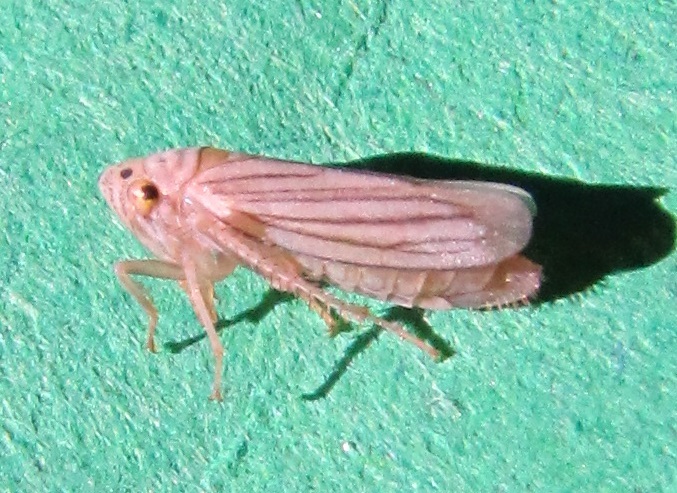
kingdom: Animalia
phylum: Arthropoda
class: Insecta
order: Hemiptera
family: Cicadellidae
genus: Provancherana
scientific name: Provancherana tripunctata
